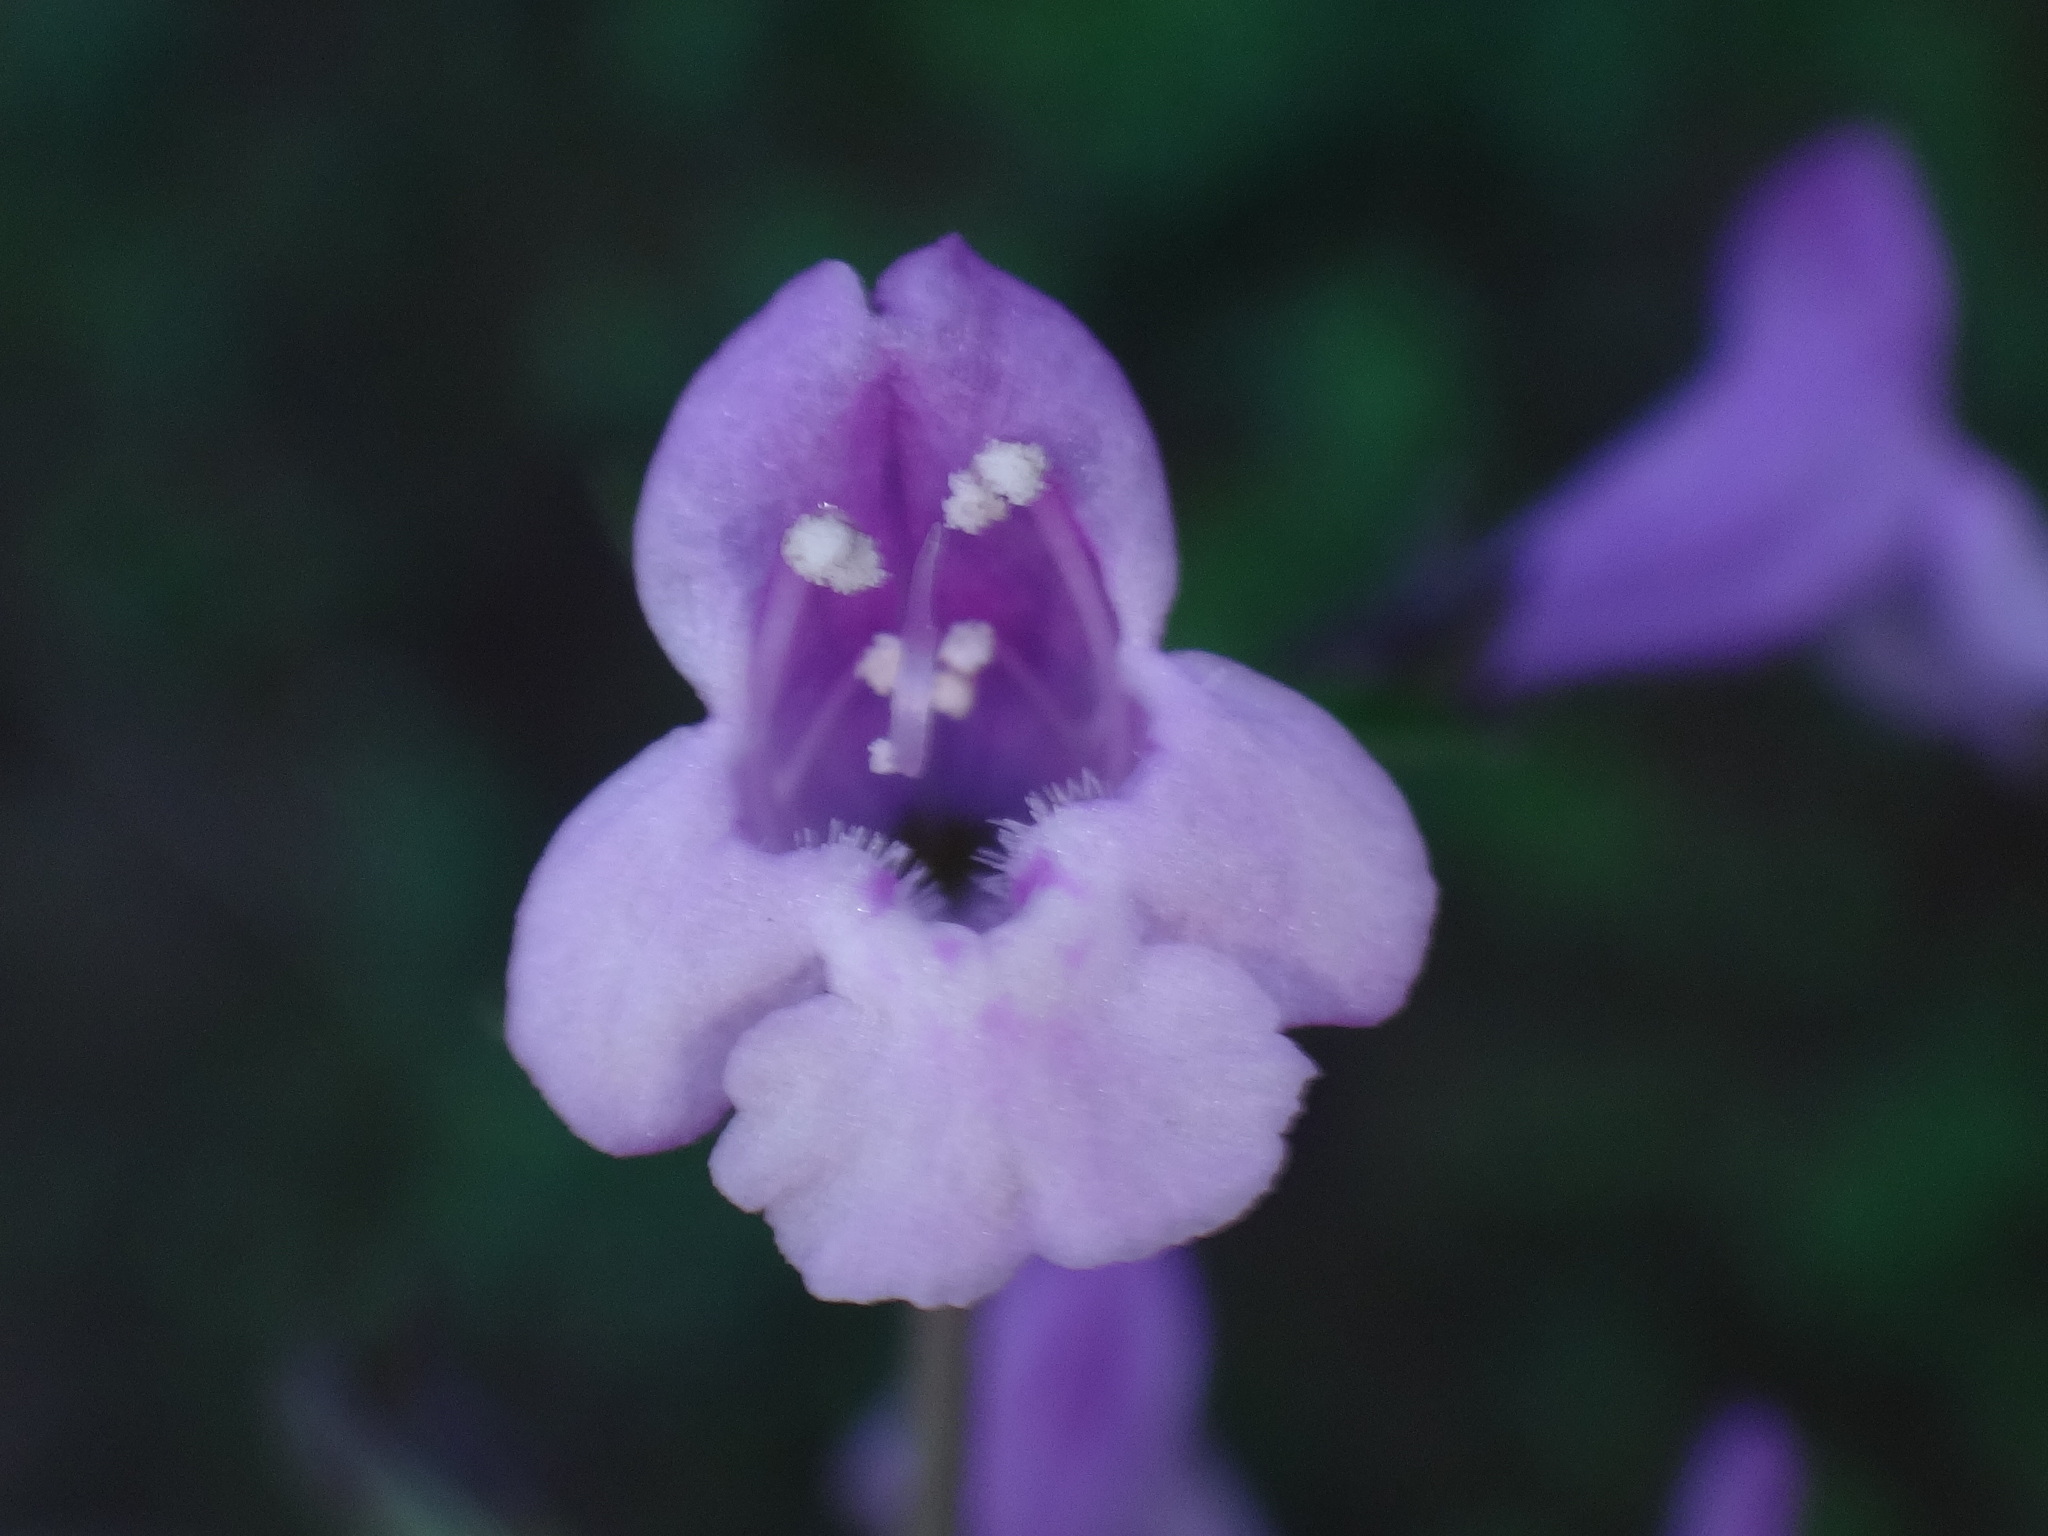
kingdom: Plantae
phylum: Tracheophyta
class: Magnoliopsida
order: Lamiales
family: Lamiaceae
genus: Clinopodium
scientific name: Clinopodium menthifolium
